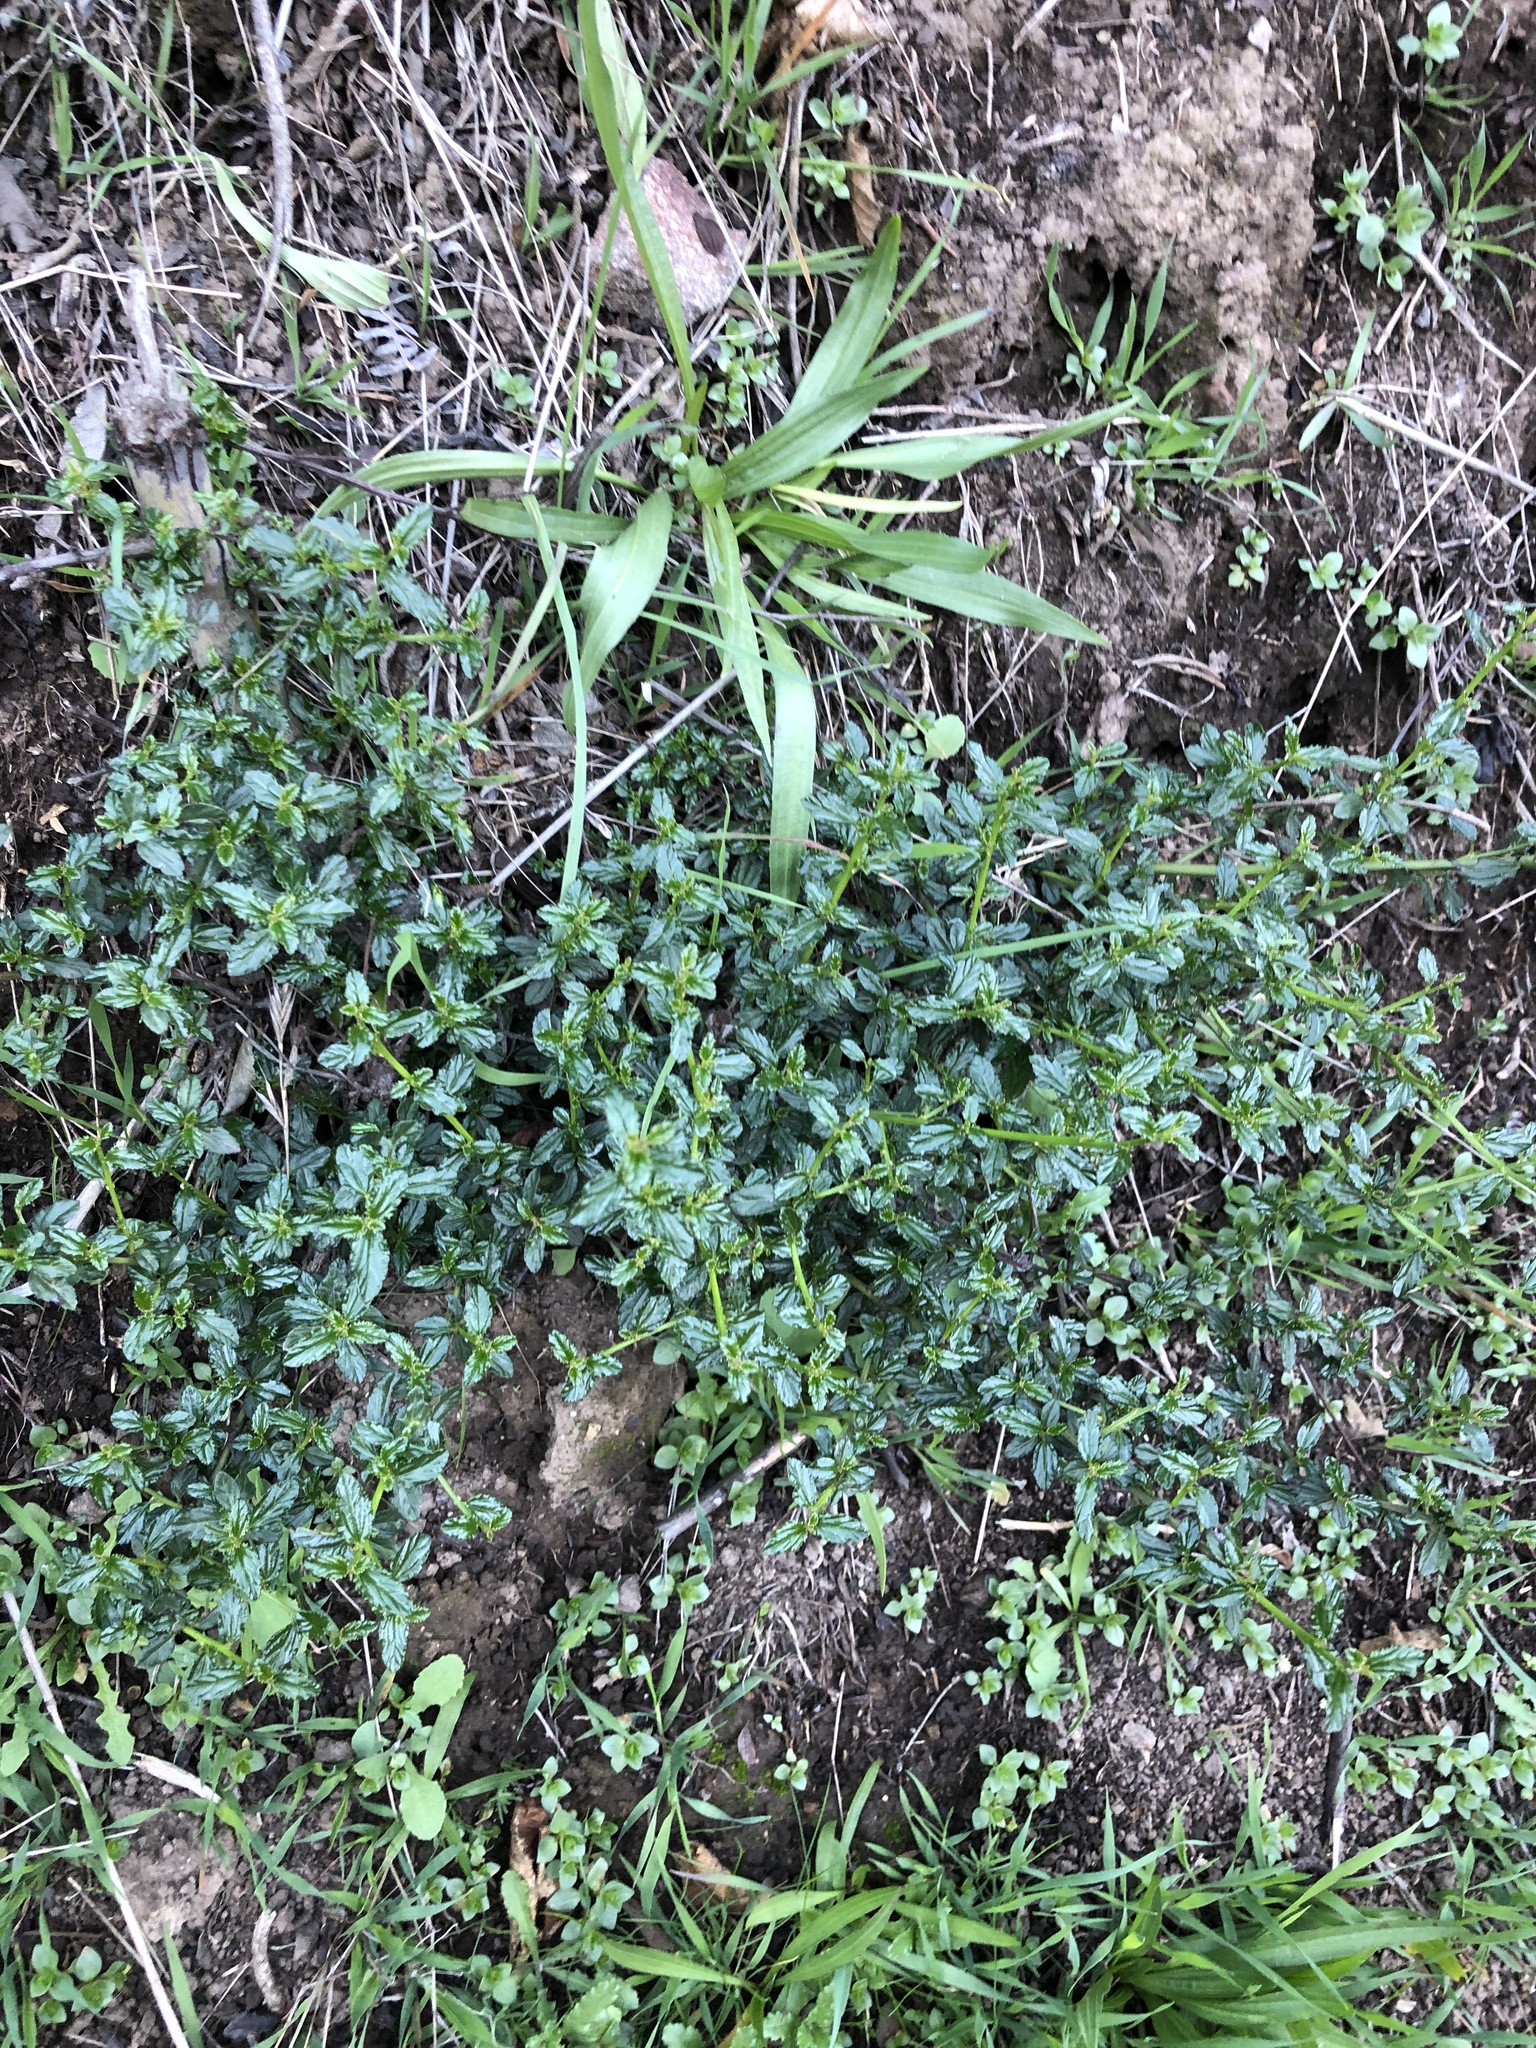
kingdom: Plantae
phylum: Tracheophyta
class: Magnoliopsida
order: Rosales
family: Rhamnaceae
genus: Ceanothus
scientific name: Ceanothus thyrsiflorus
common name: California-lilac
